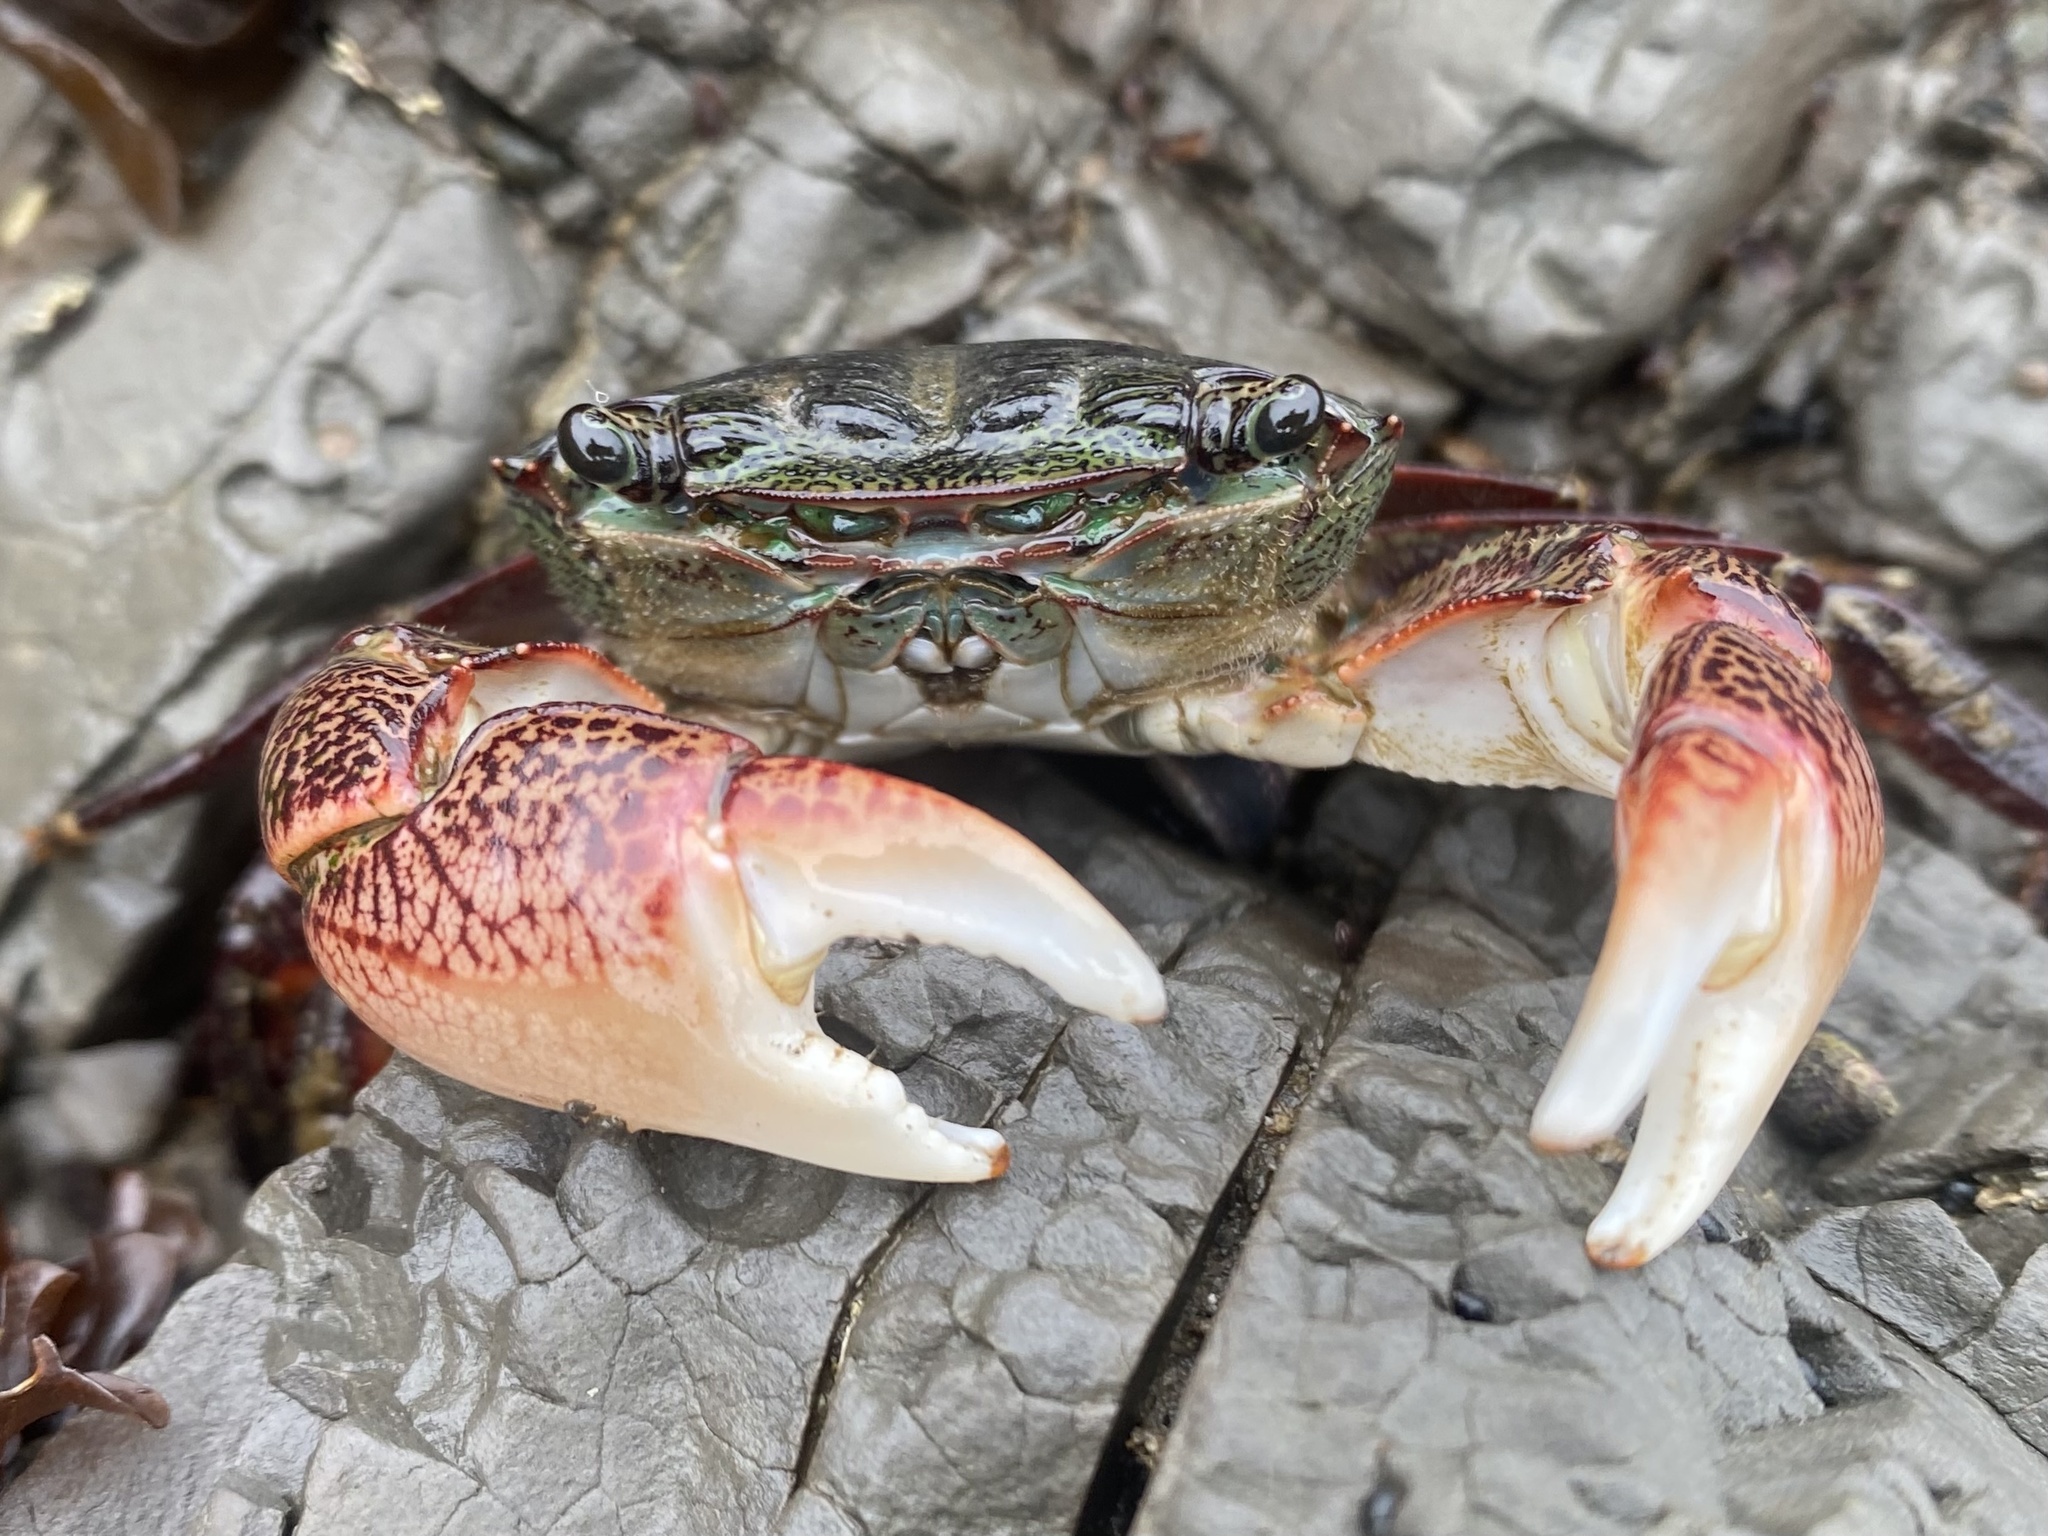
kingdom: Animalia
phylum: Arthropoda
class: Malacostraca
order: Decapoda
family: Grapsidae
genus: Pachygrapsus
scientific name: Pachygrapsus crassipes
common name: Striped shore crab
